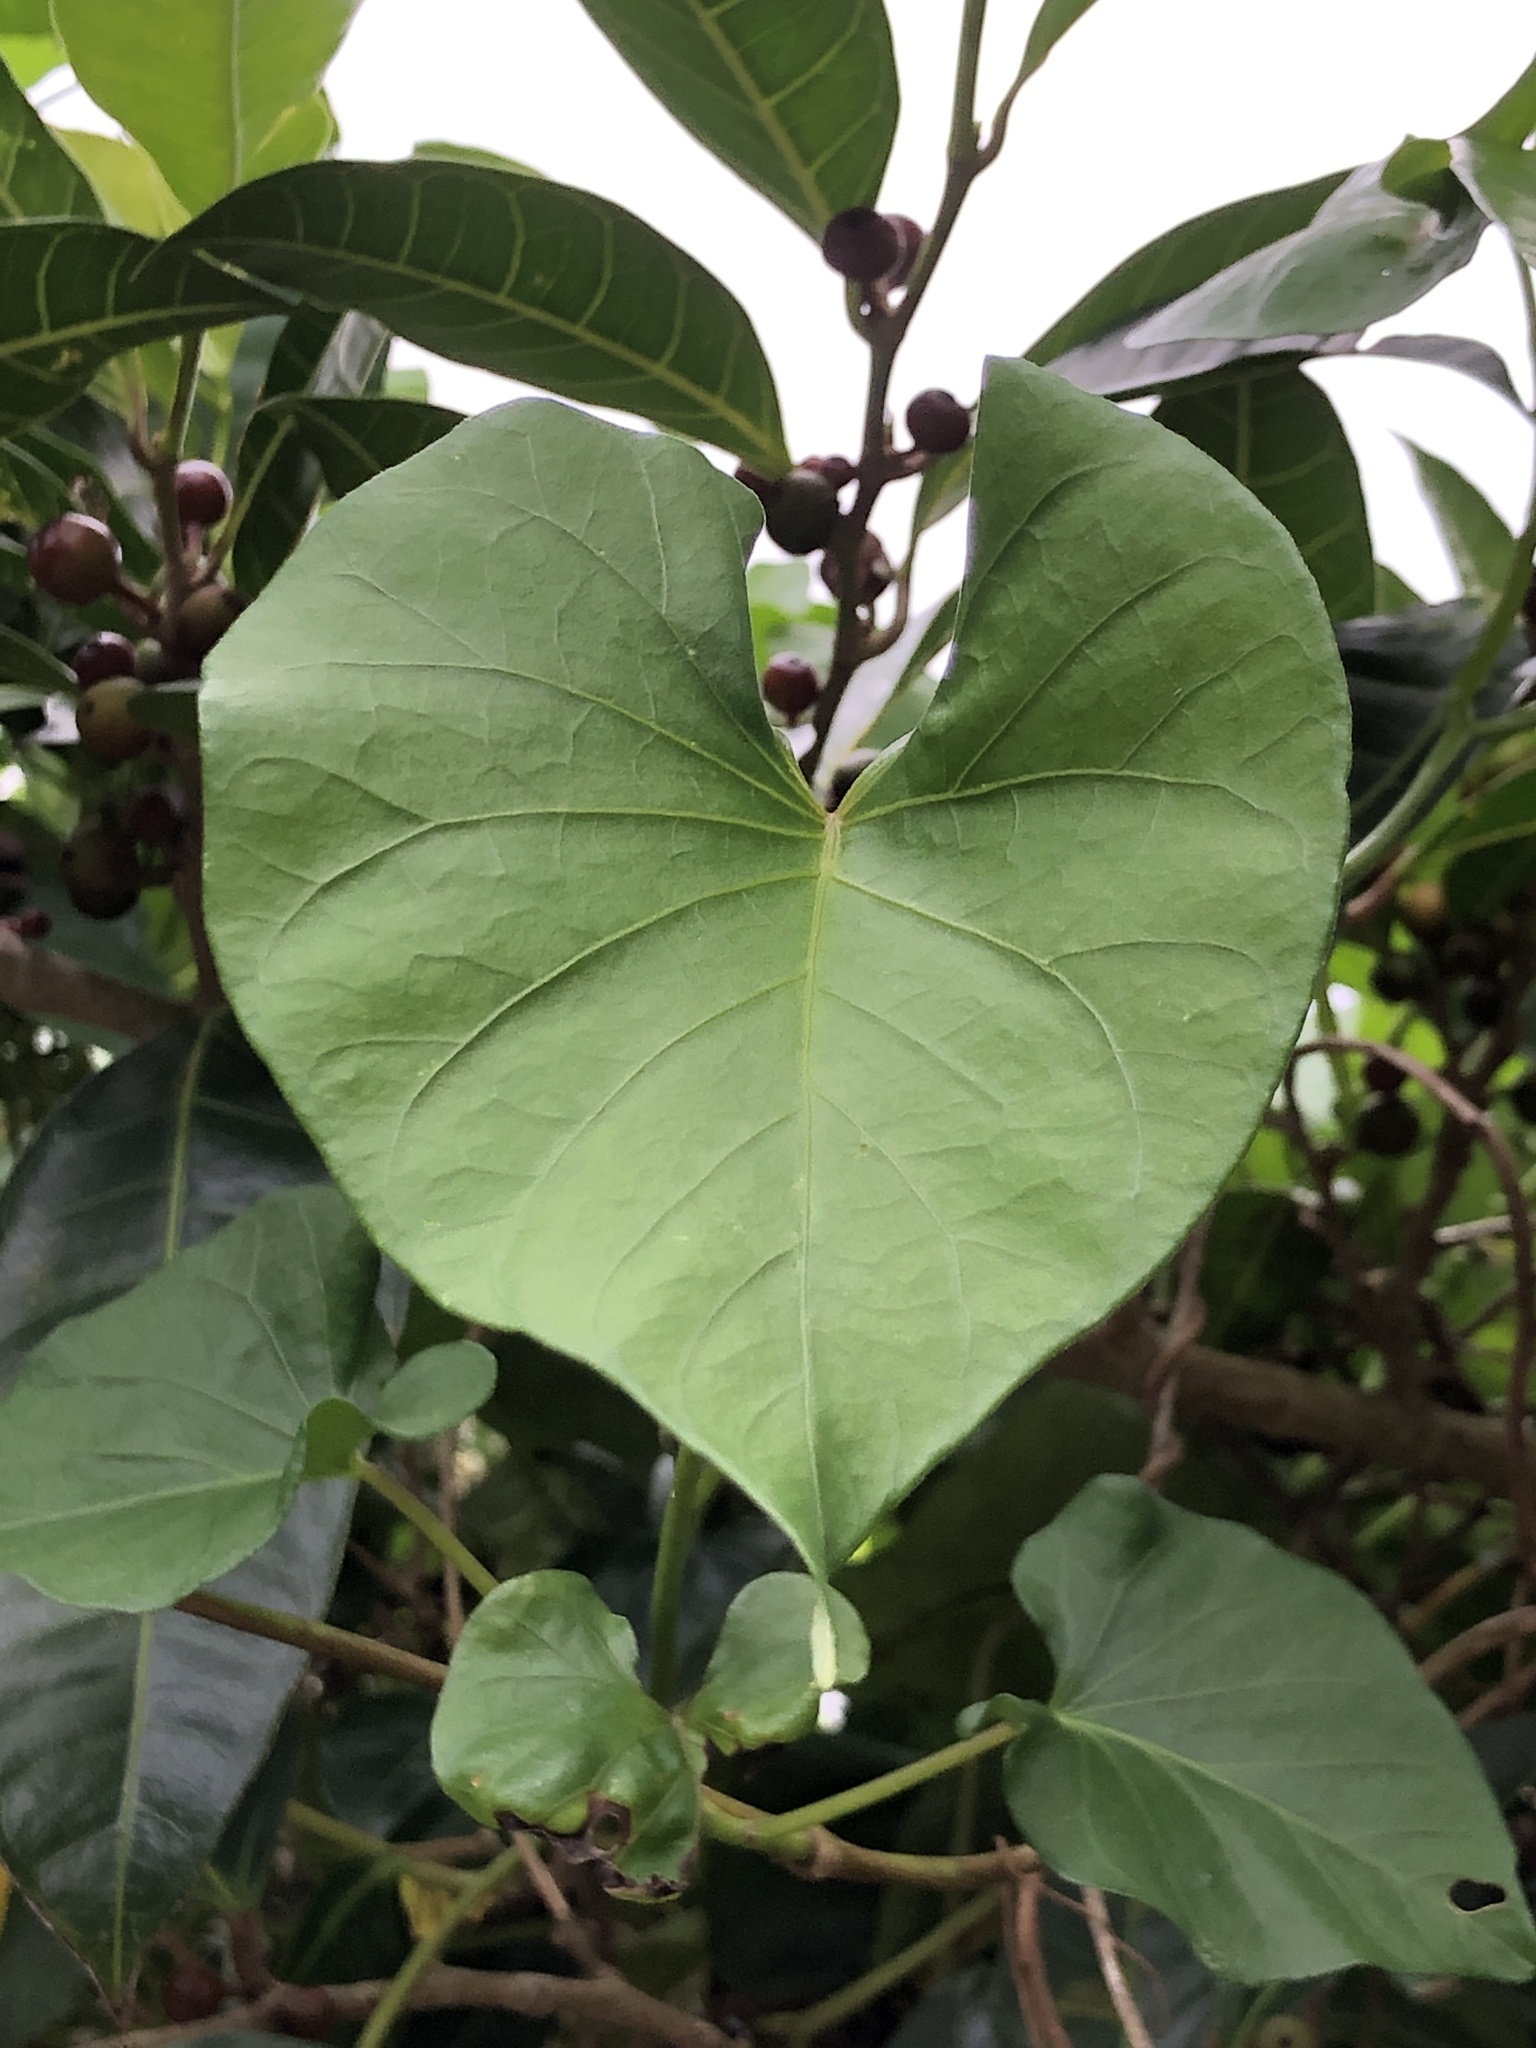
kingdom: Plantae
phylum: Tracheophyta
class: Magnoliopsida
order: Solanales
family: Convolvulaceae
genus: Ipomoea
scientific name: Ipomoea indica
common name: Blue dawnflower
